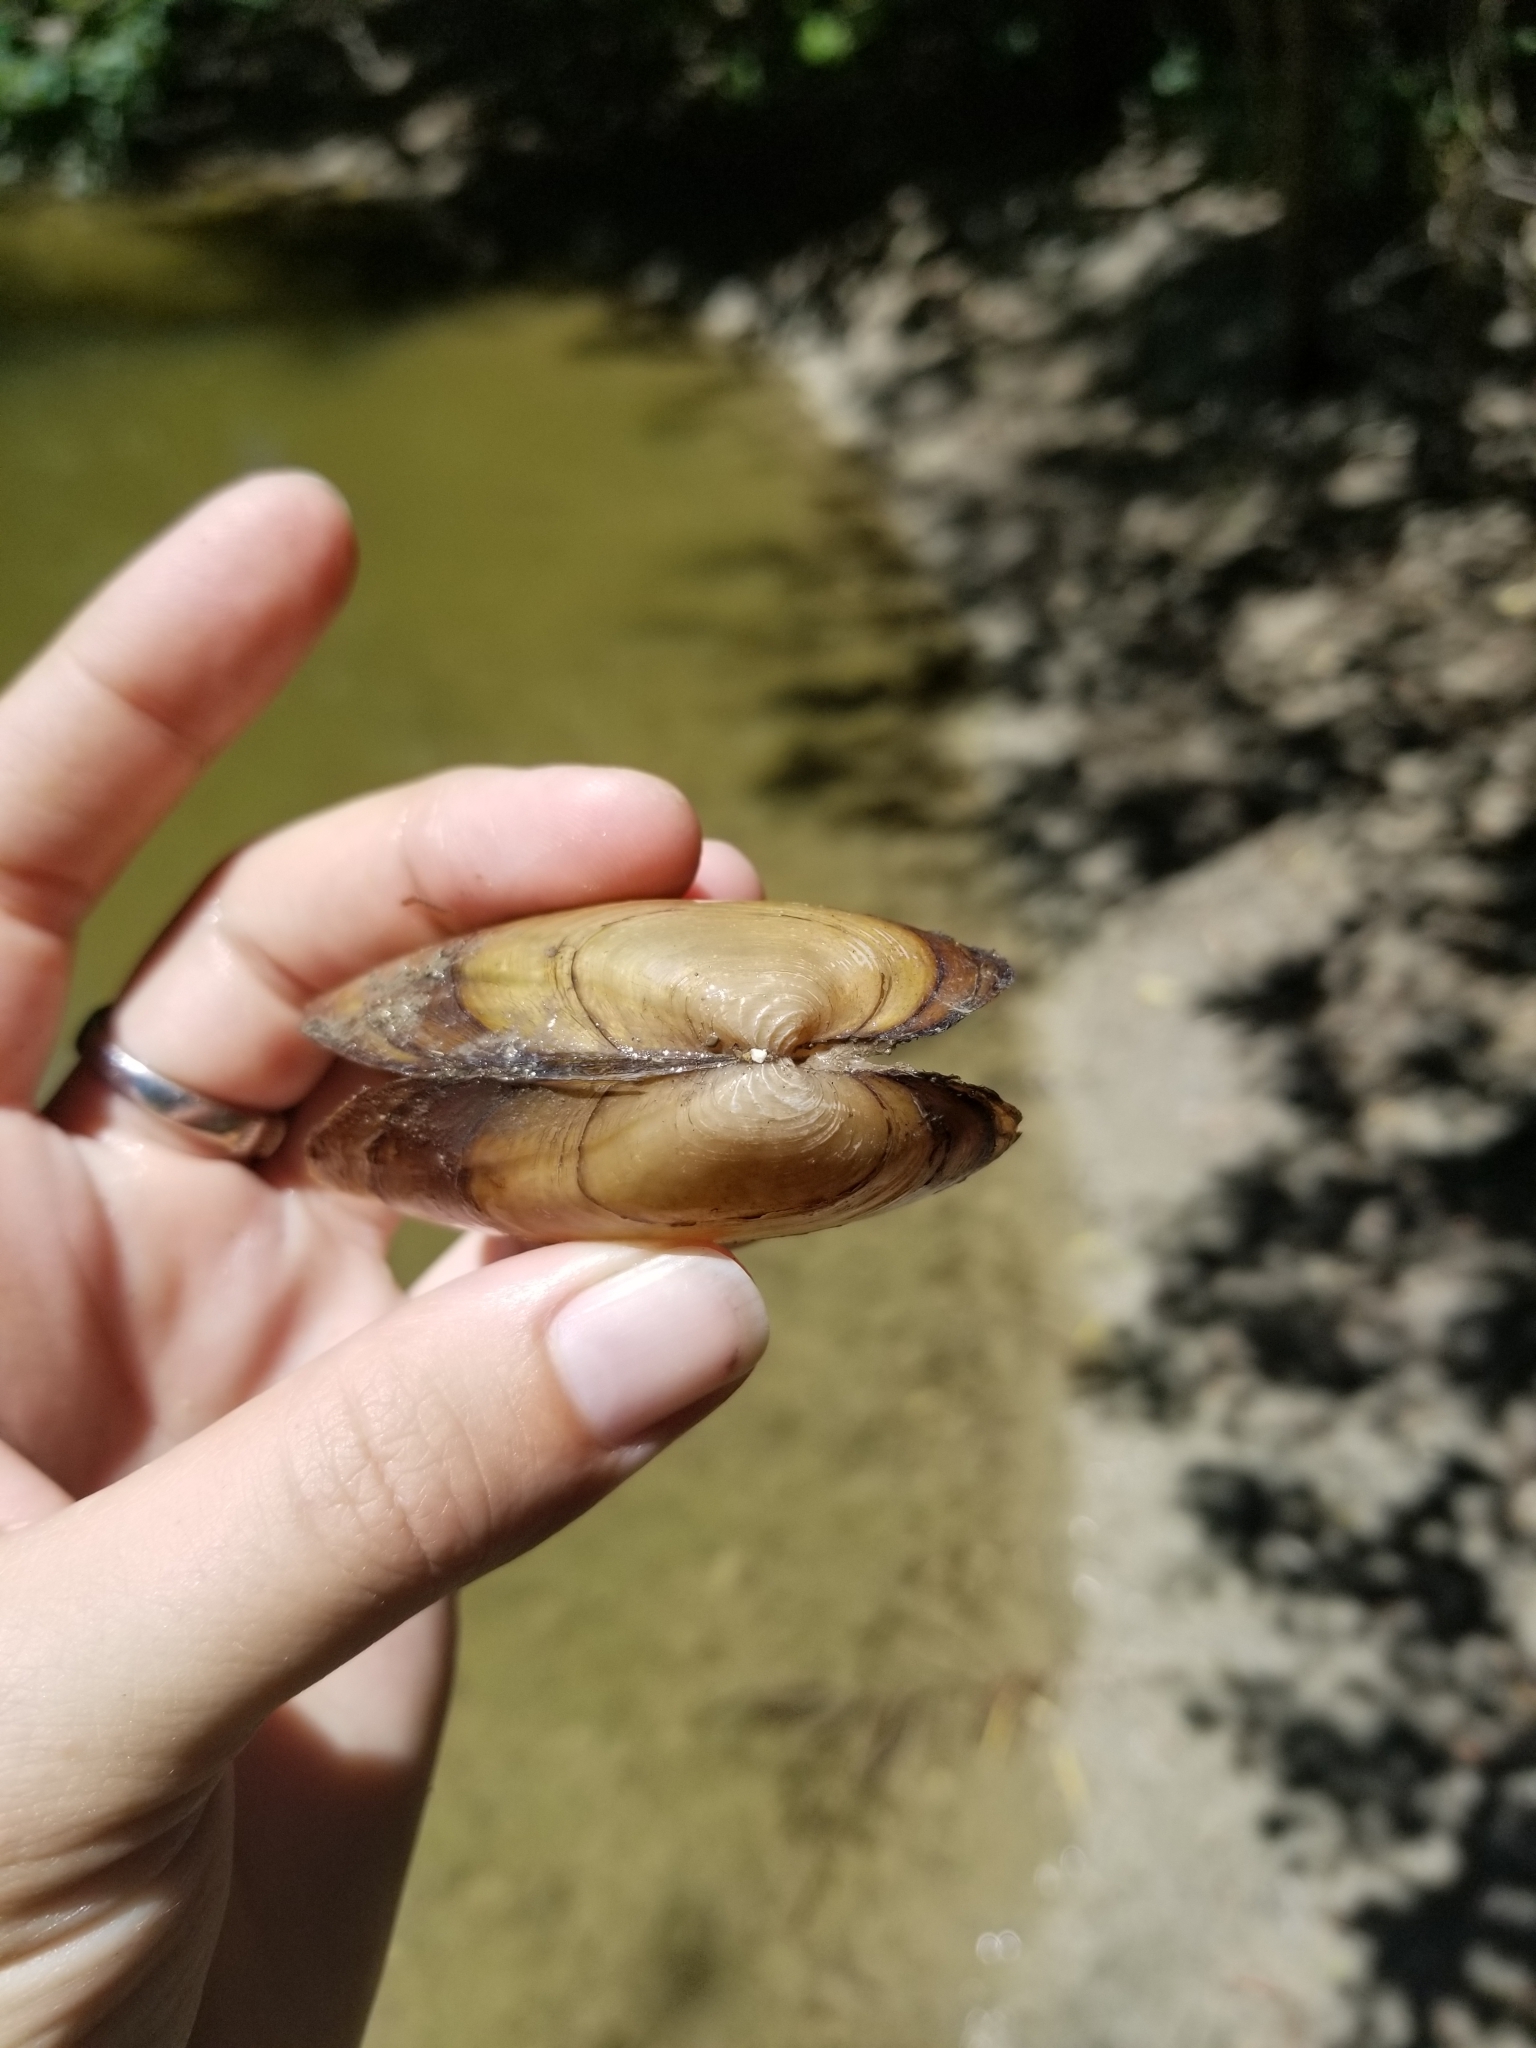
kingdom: Animalia
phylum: Mollusca
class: Bivalvia
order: Unionida
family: Unionidae
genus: Uniomerus
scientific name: Uniomerus tetralasmus
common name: Pondhorn
